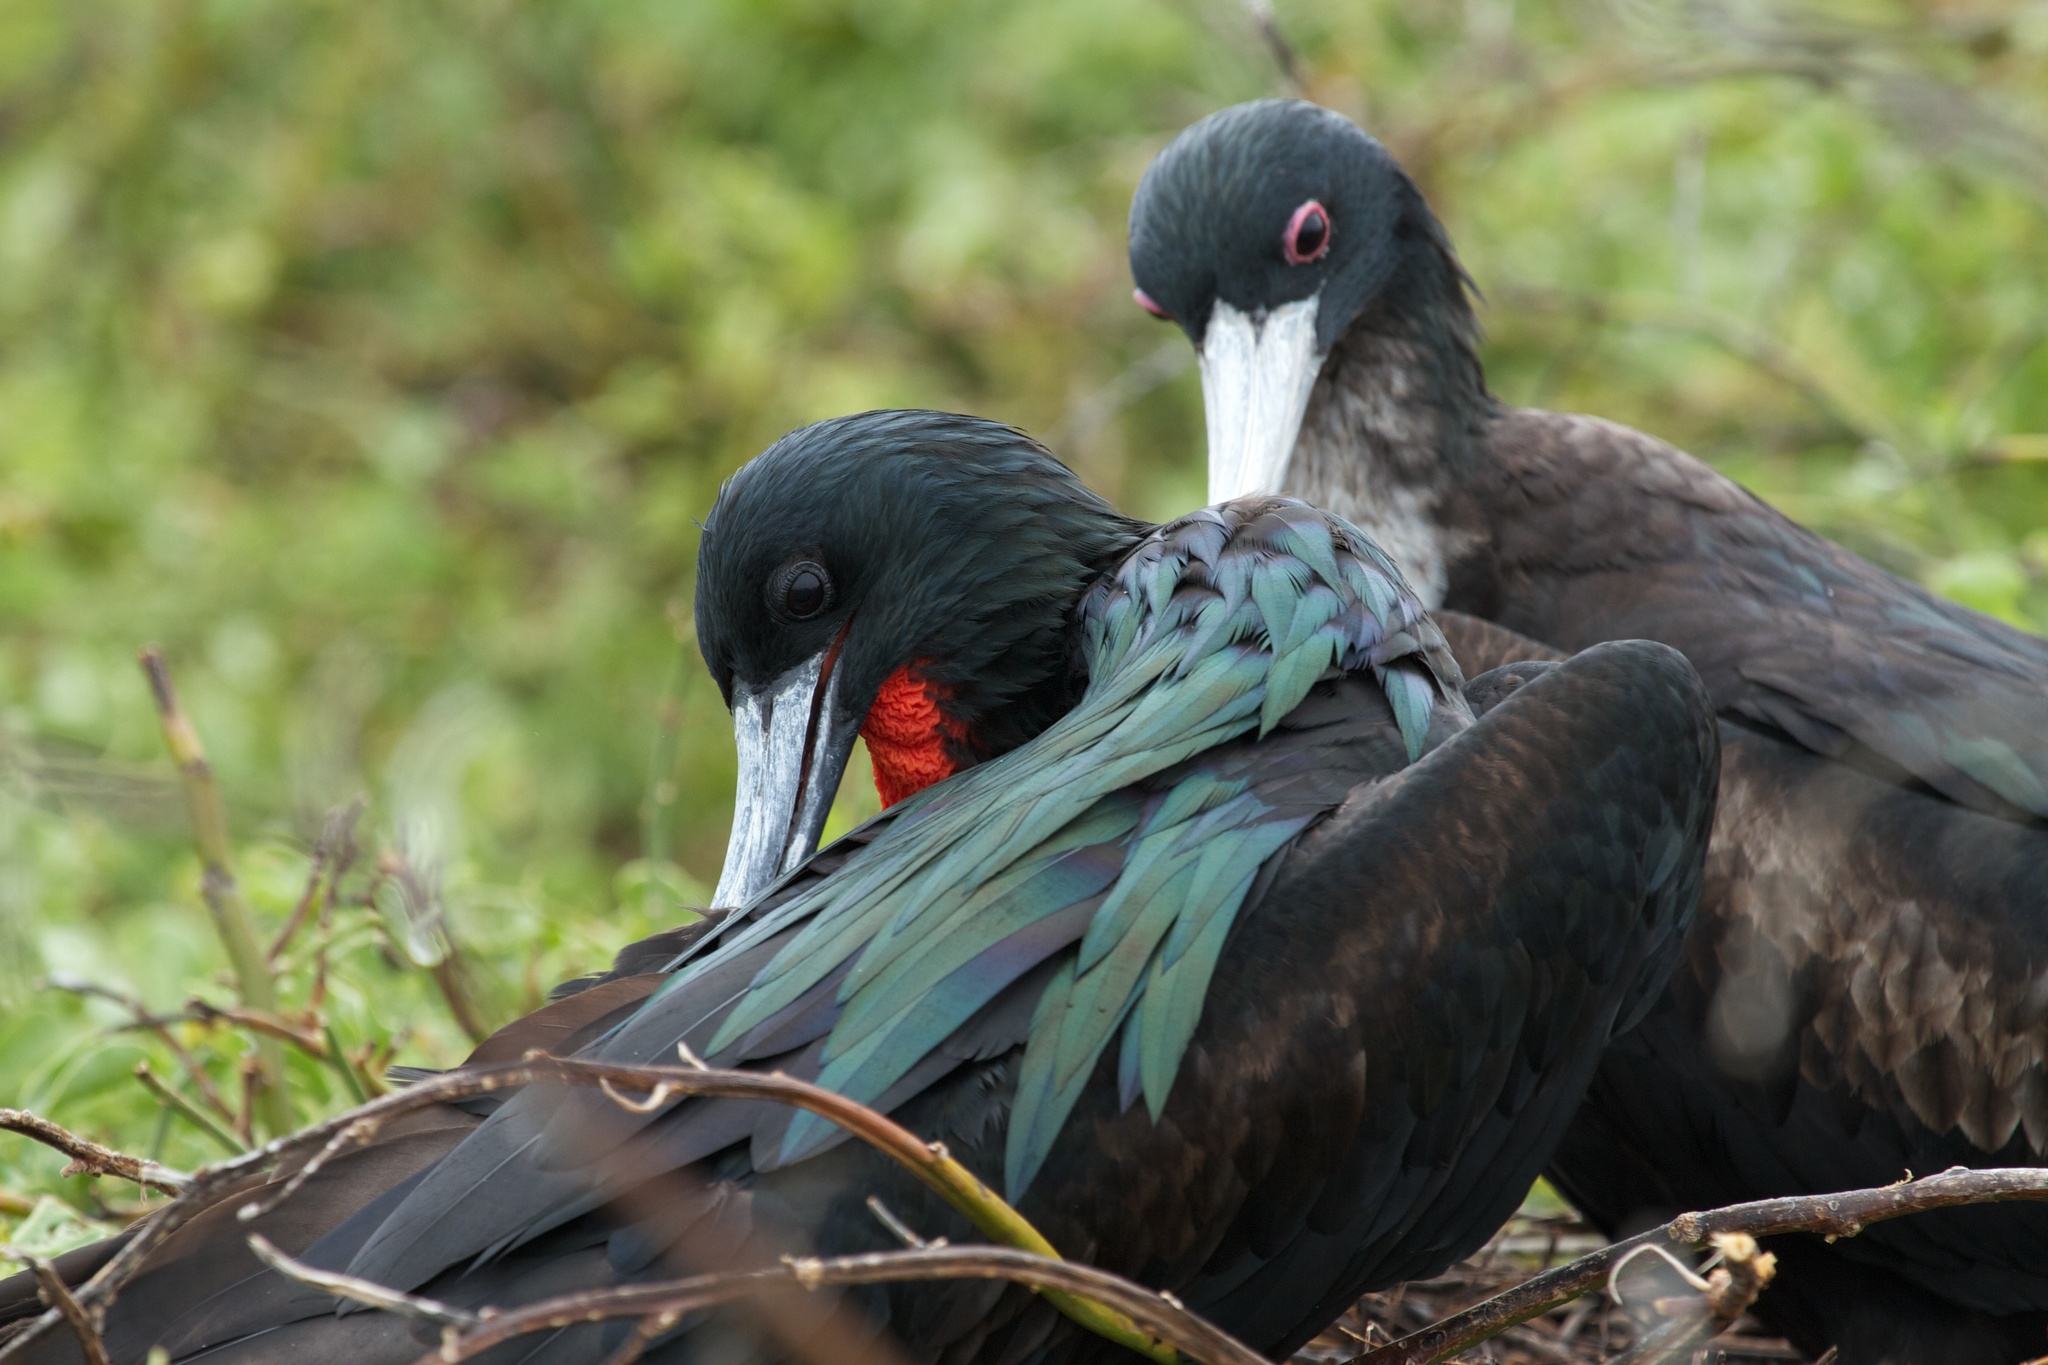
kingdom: Animalia
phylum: Chordata
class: Aves
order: Suliformes
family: Fregatidae
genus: Fregata
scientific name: Fregata minor
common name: Great frigatebird
